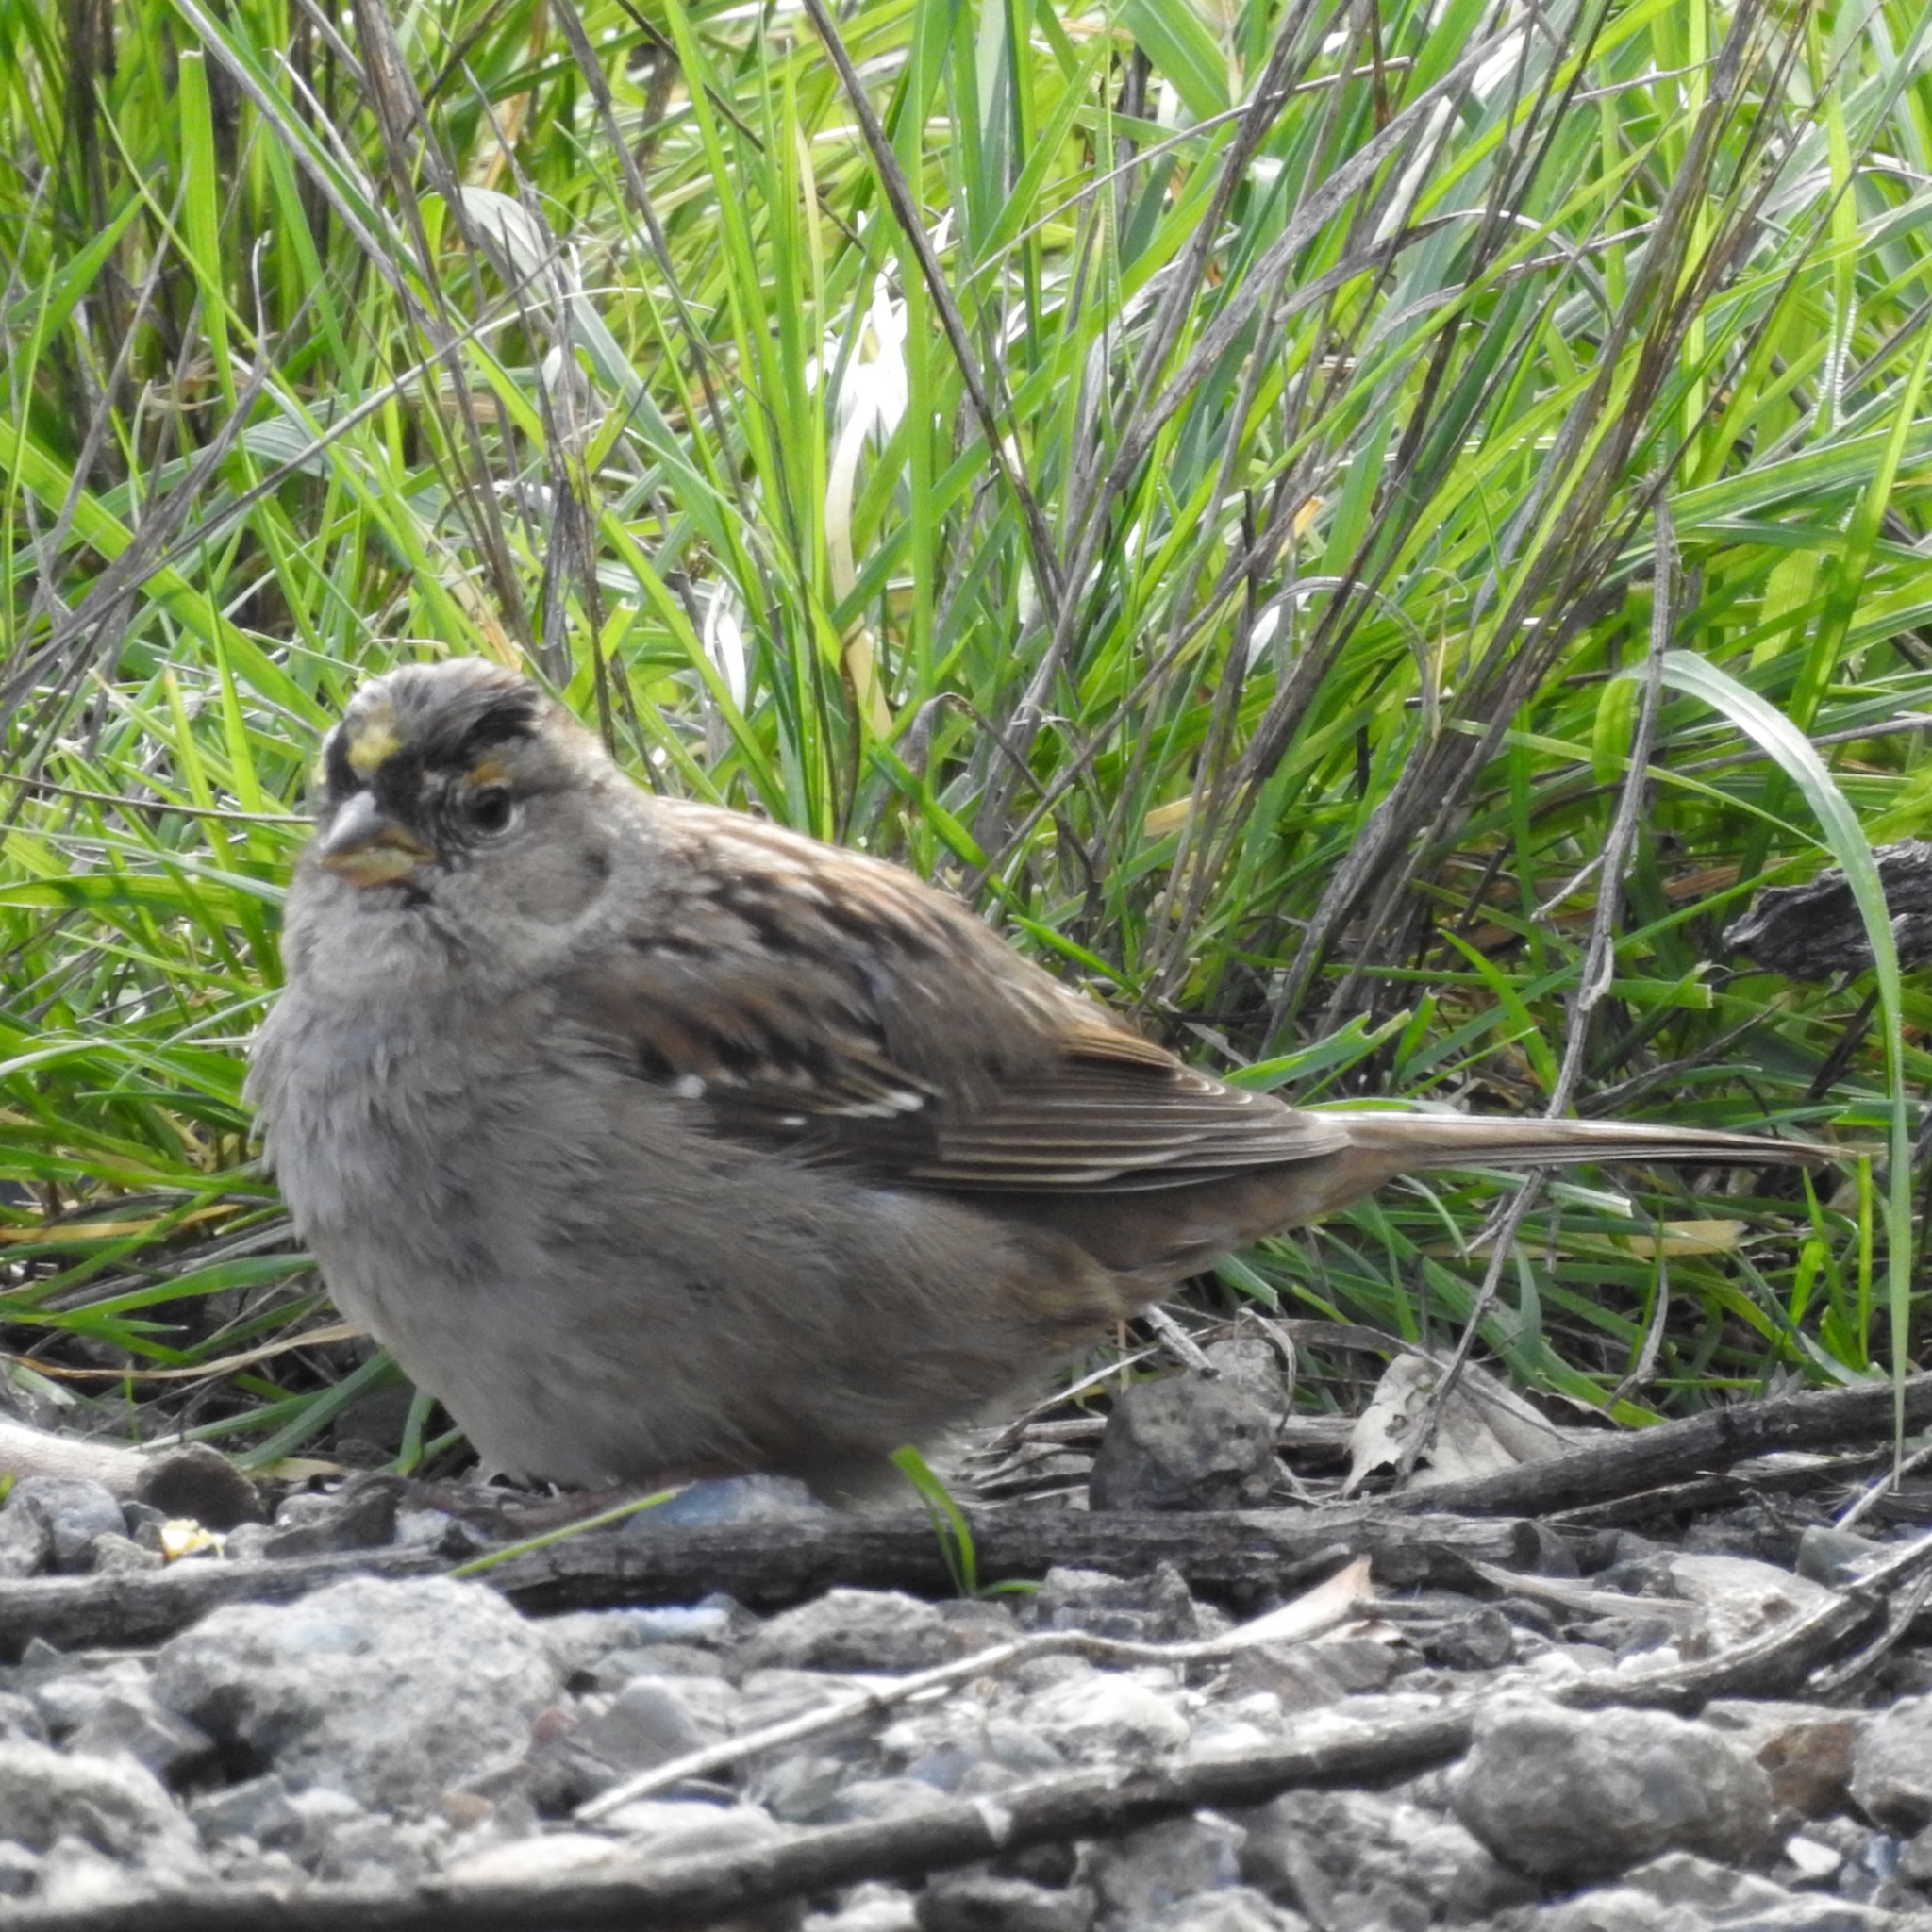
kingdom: Animalia
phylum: Chordata
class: Aves
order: Passeriformes
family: Passerellidae
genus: Zonotrichia
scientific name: Zonotrichia atricapilla
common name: Golden-crowned sparrow
